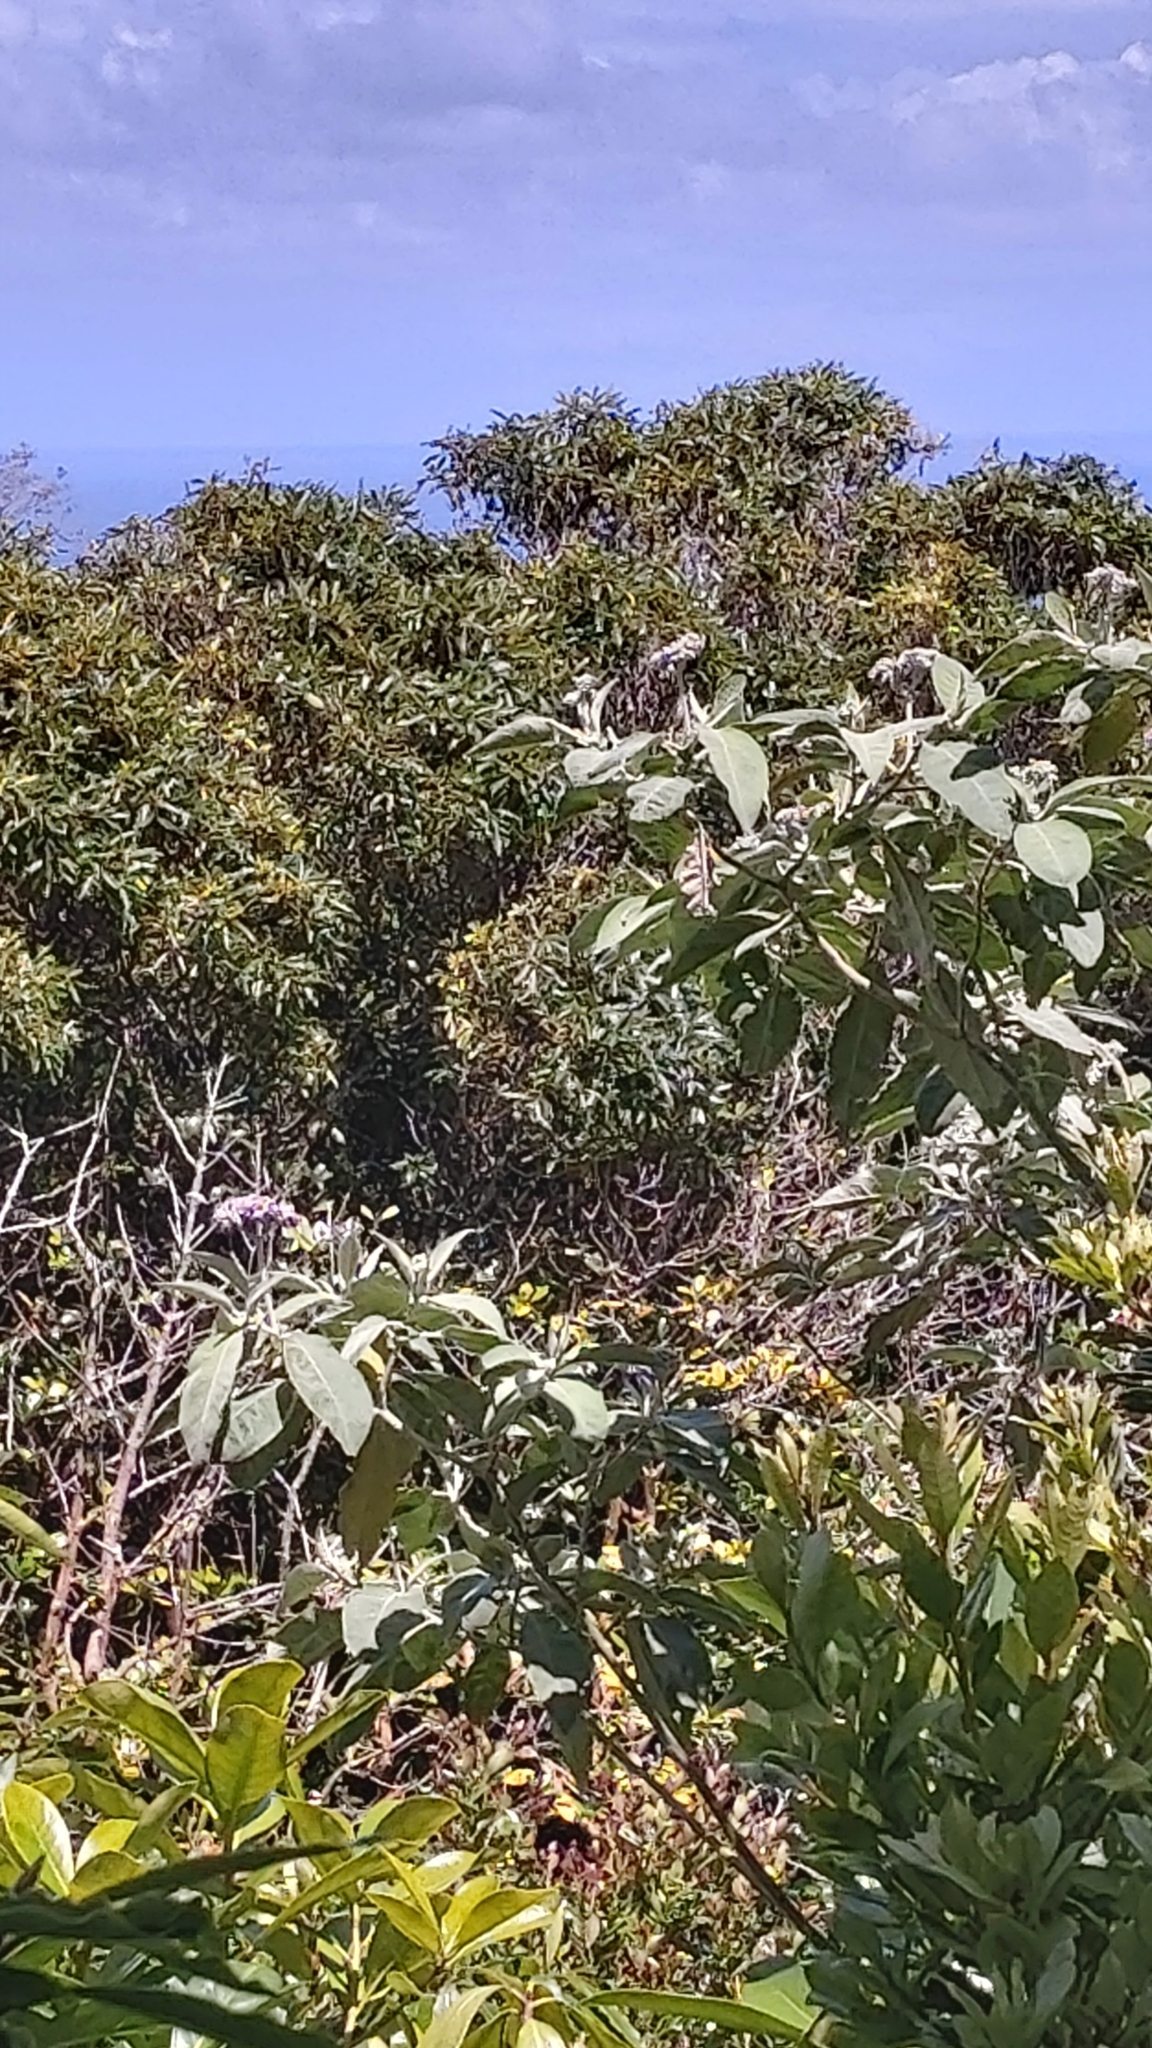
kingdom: Plantae
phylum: Tracheophyta
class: Magnoliopsida
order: Solanales
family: Solanaceae
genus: Solanum
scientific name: Solanum mauritianum
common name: Earleaf nightshade
